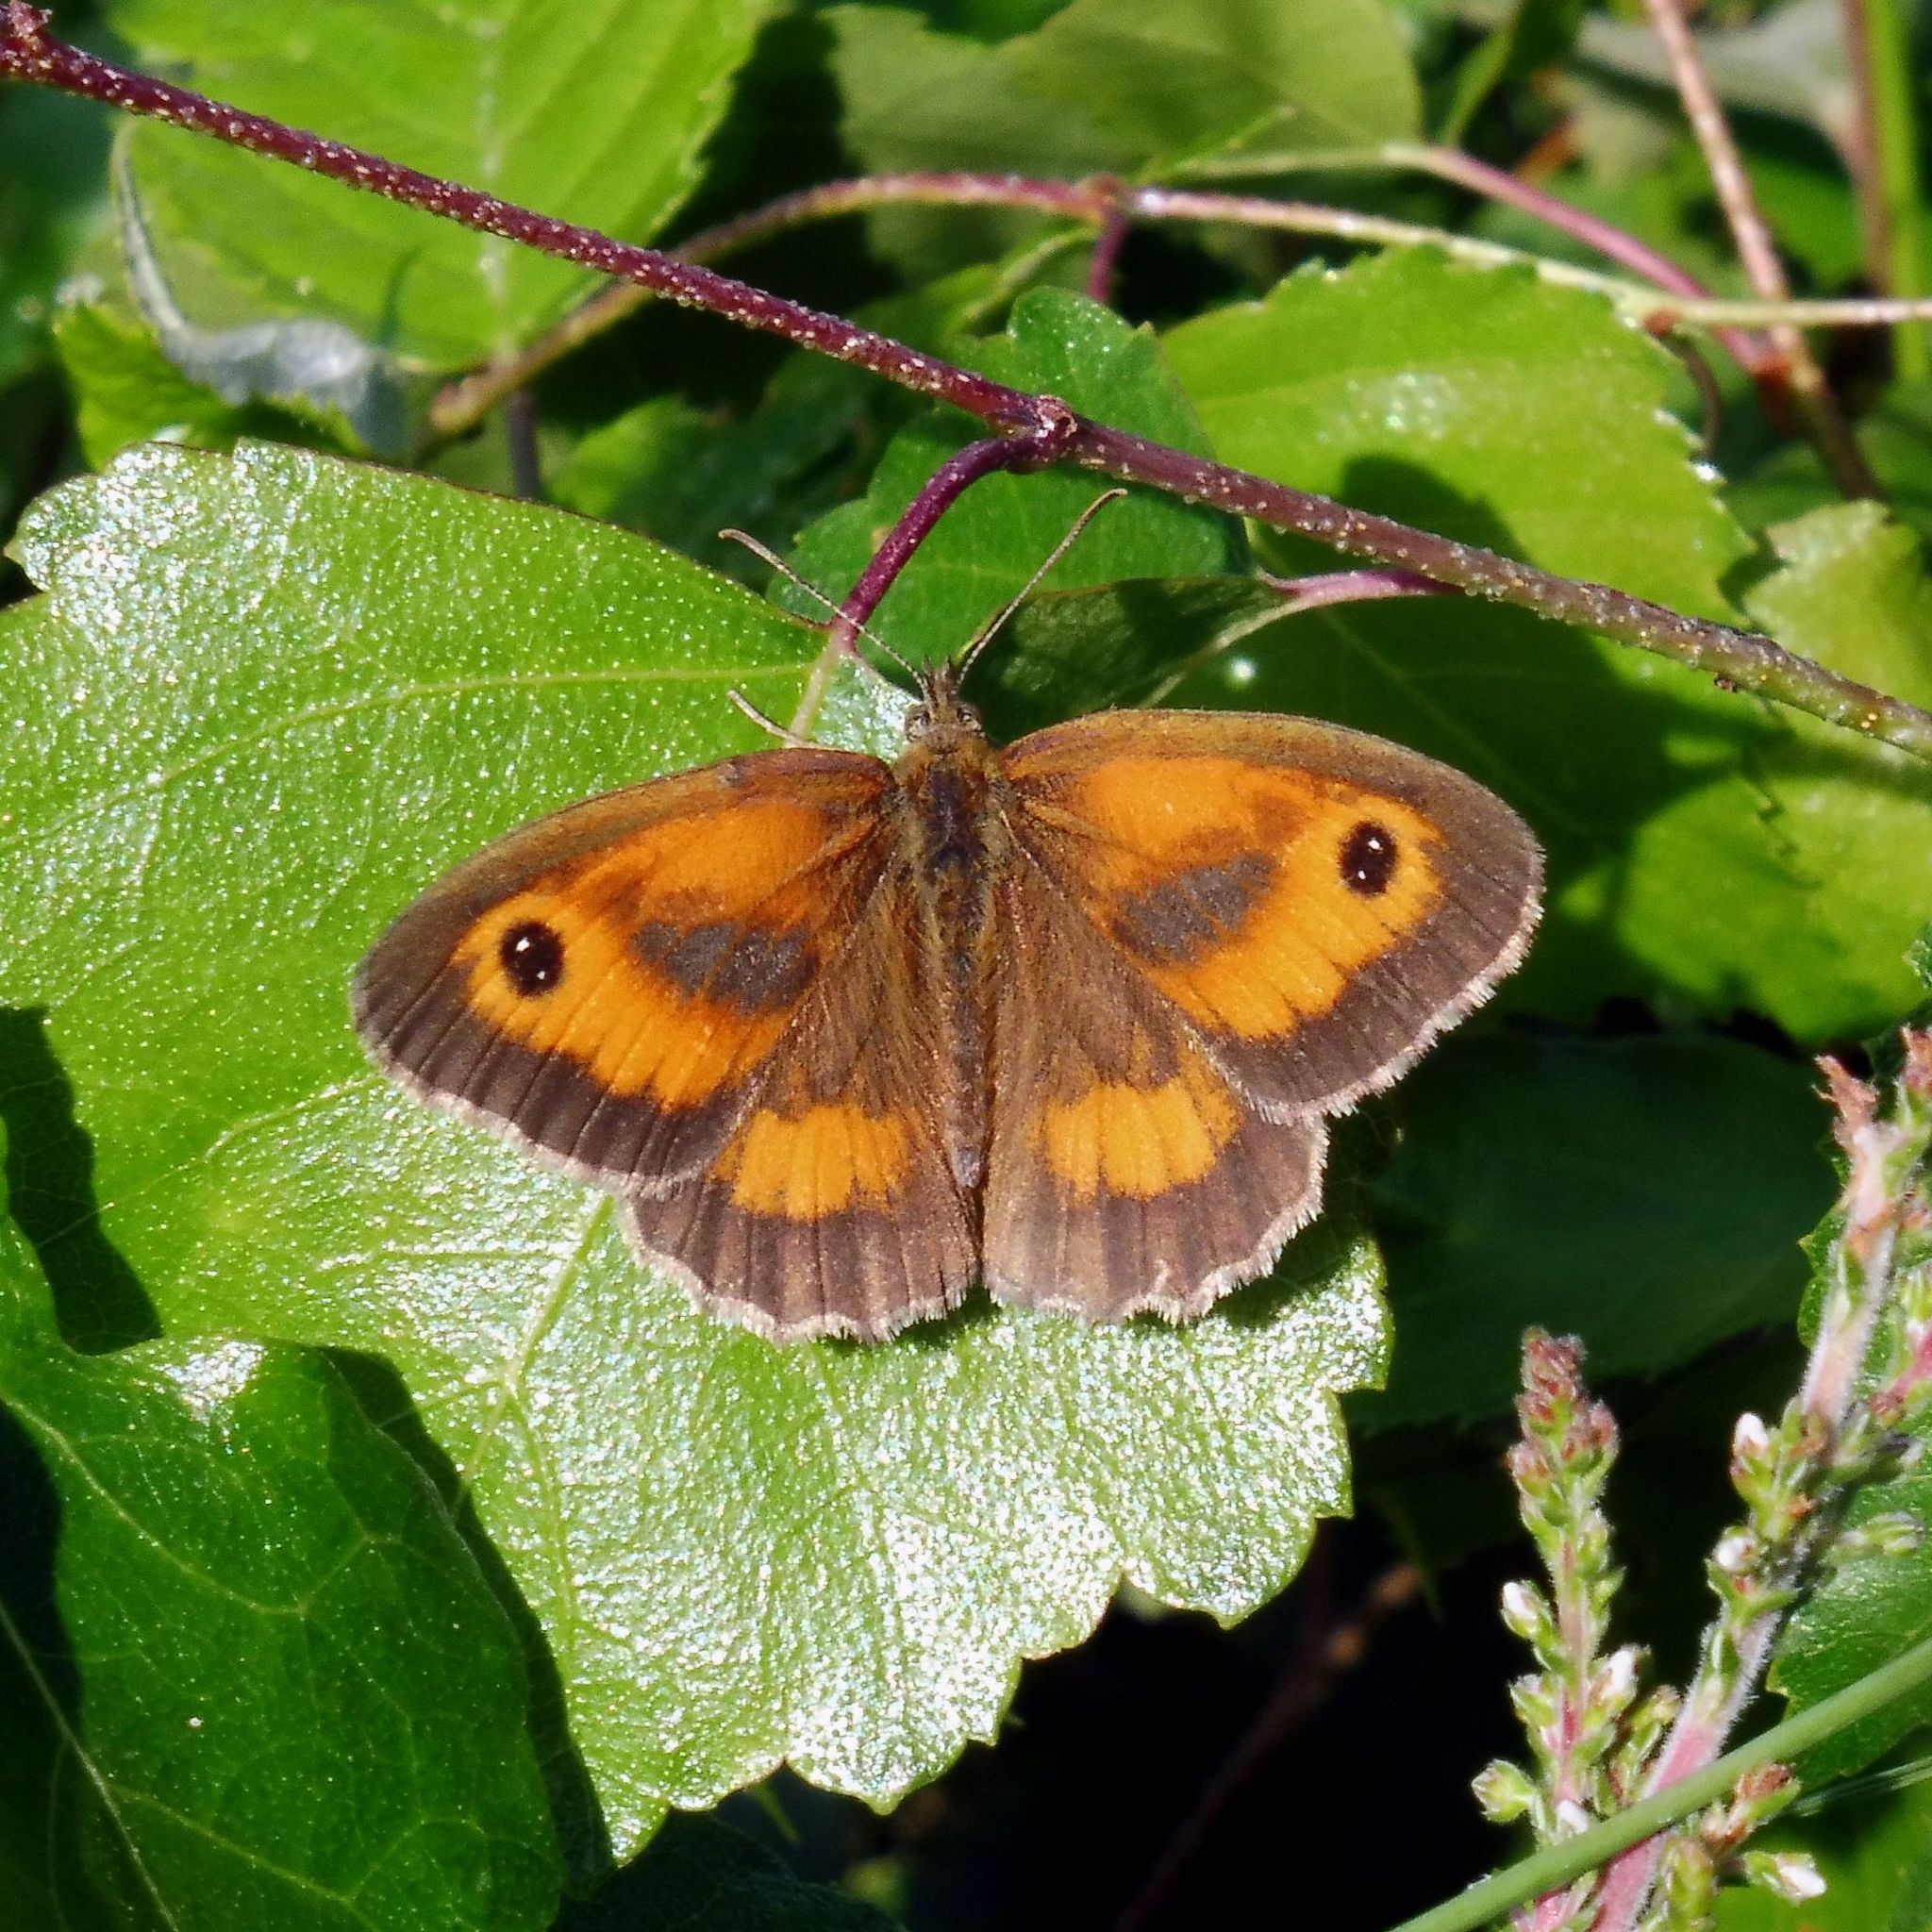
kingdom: Animalia
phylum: Arthropoda
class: Insecta
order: Lepidoptera
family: Nymphalidae
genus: Pyronia
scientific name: Pyronia tithonus
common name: Gatekeeper
